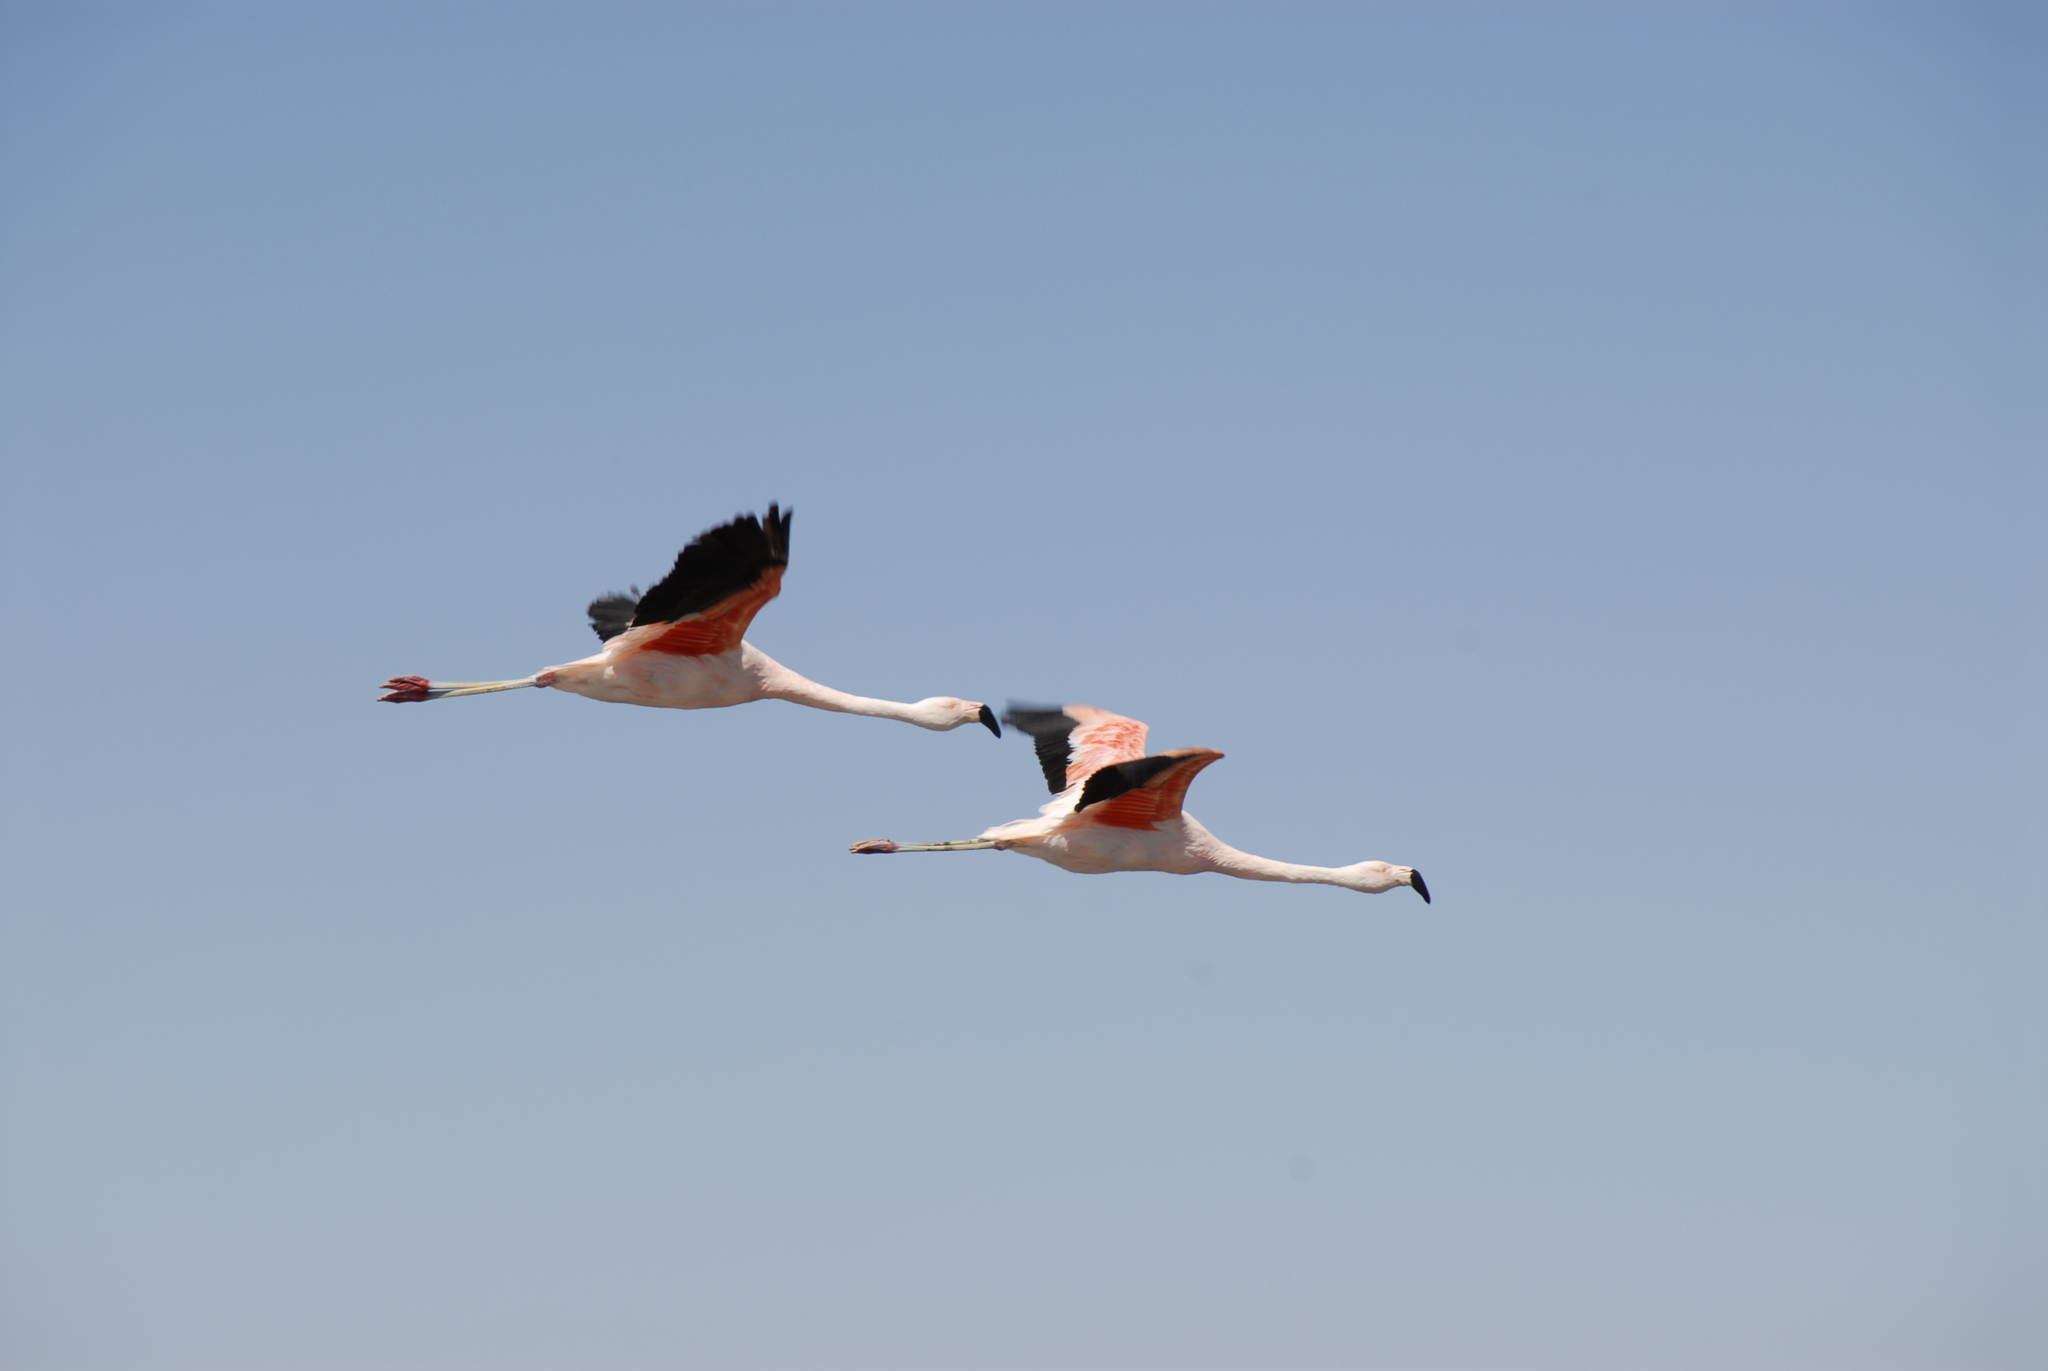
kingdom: Animalia
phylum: Chordata
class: Aves
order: Phoenicopteriformes
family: Phoenicopteridae
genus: Phoenicopterus
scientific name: Phoenicopterus chilensis
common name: Chilean flamingo
